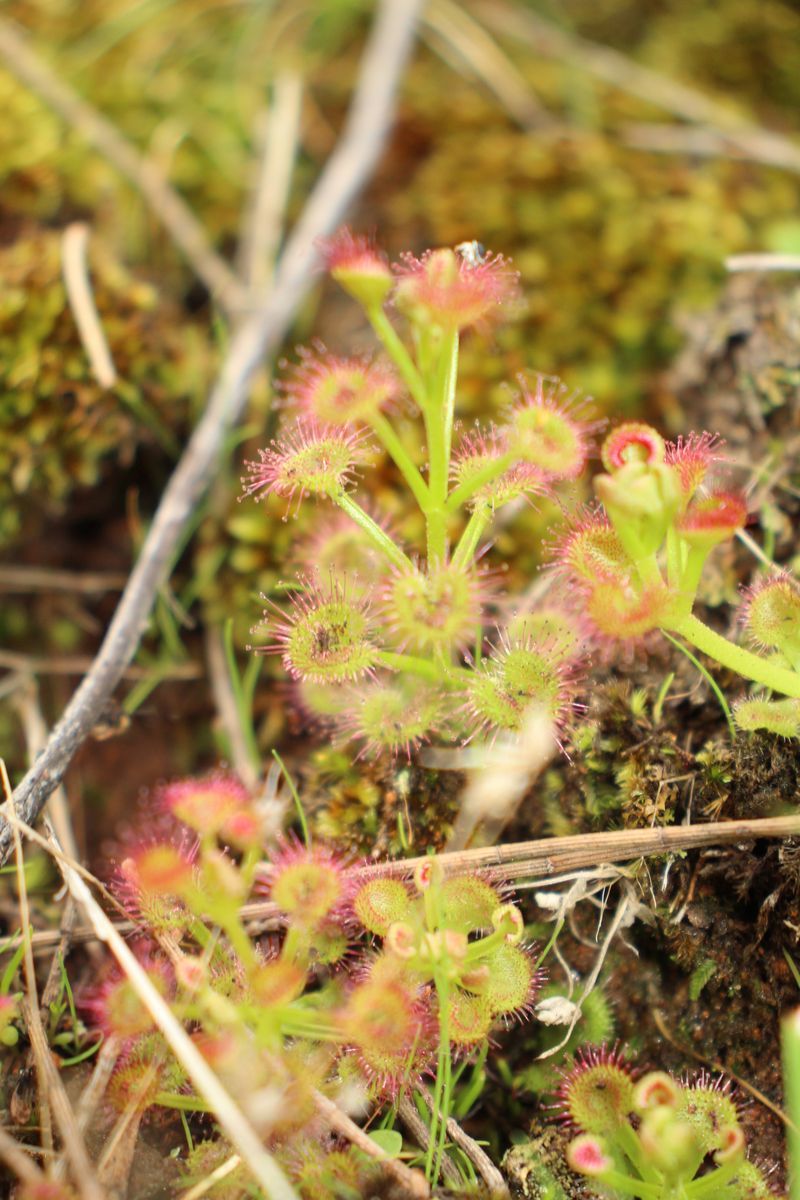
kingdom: Plantae
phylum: Tracheophyta
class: Magnoliopsida
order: Caryophyllales
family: Droseraceae
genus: Drosera
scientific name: Drosera stolonifera
